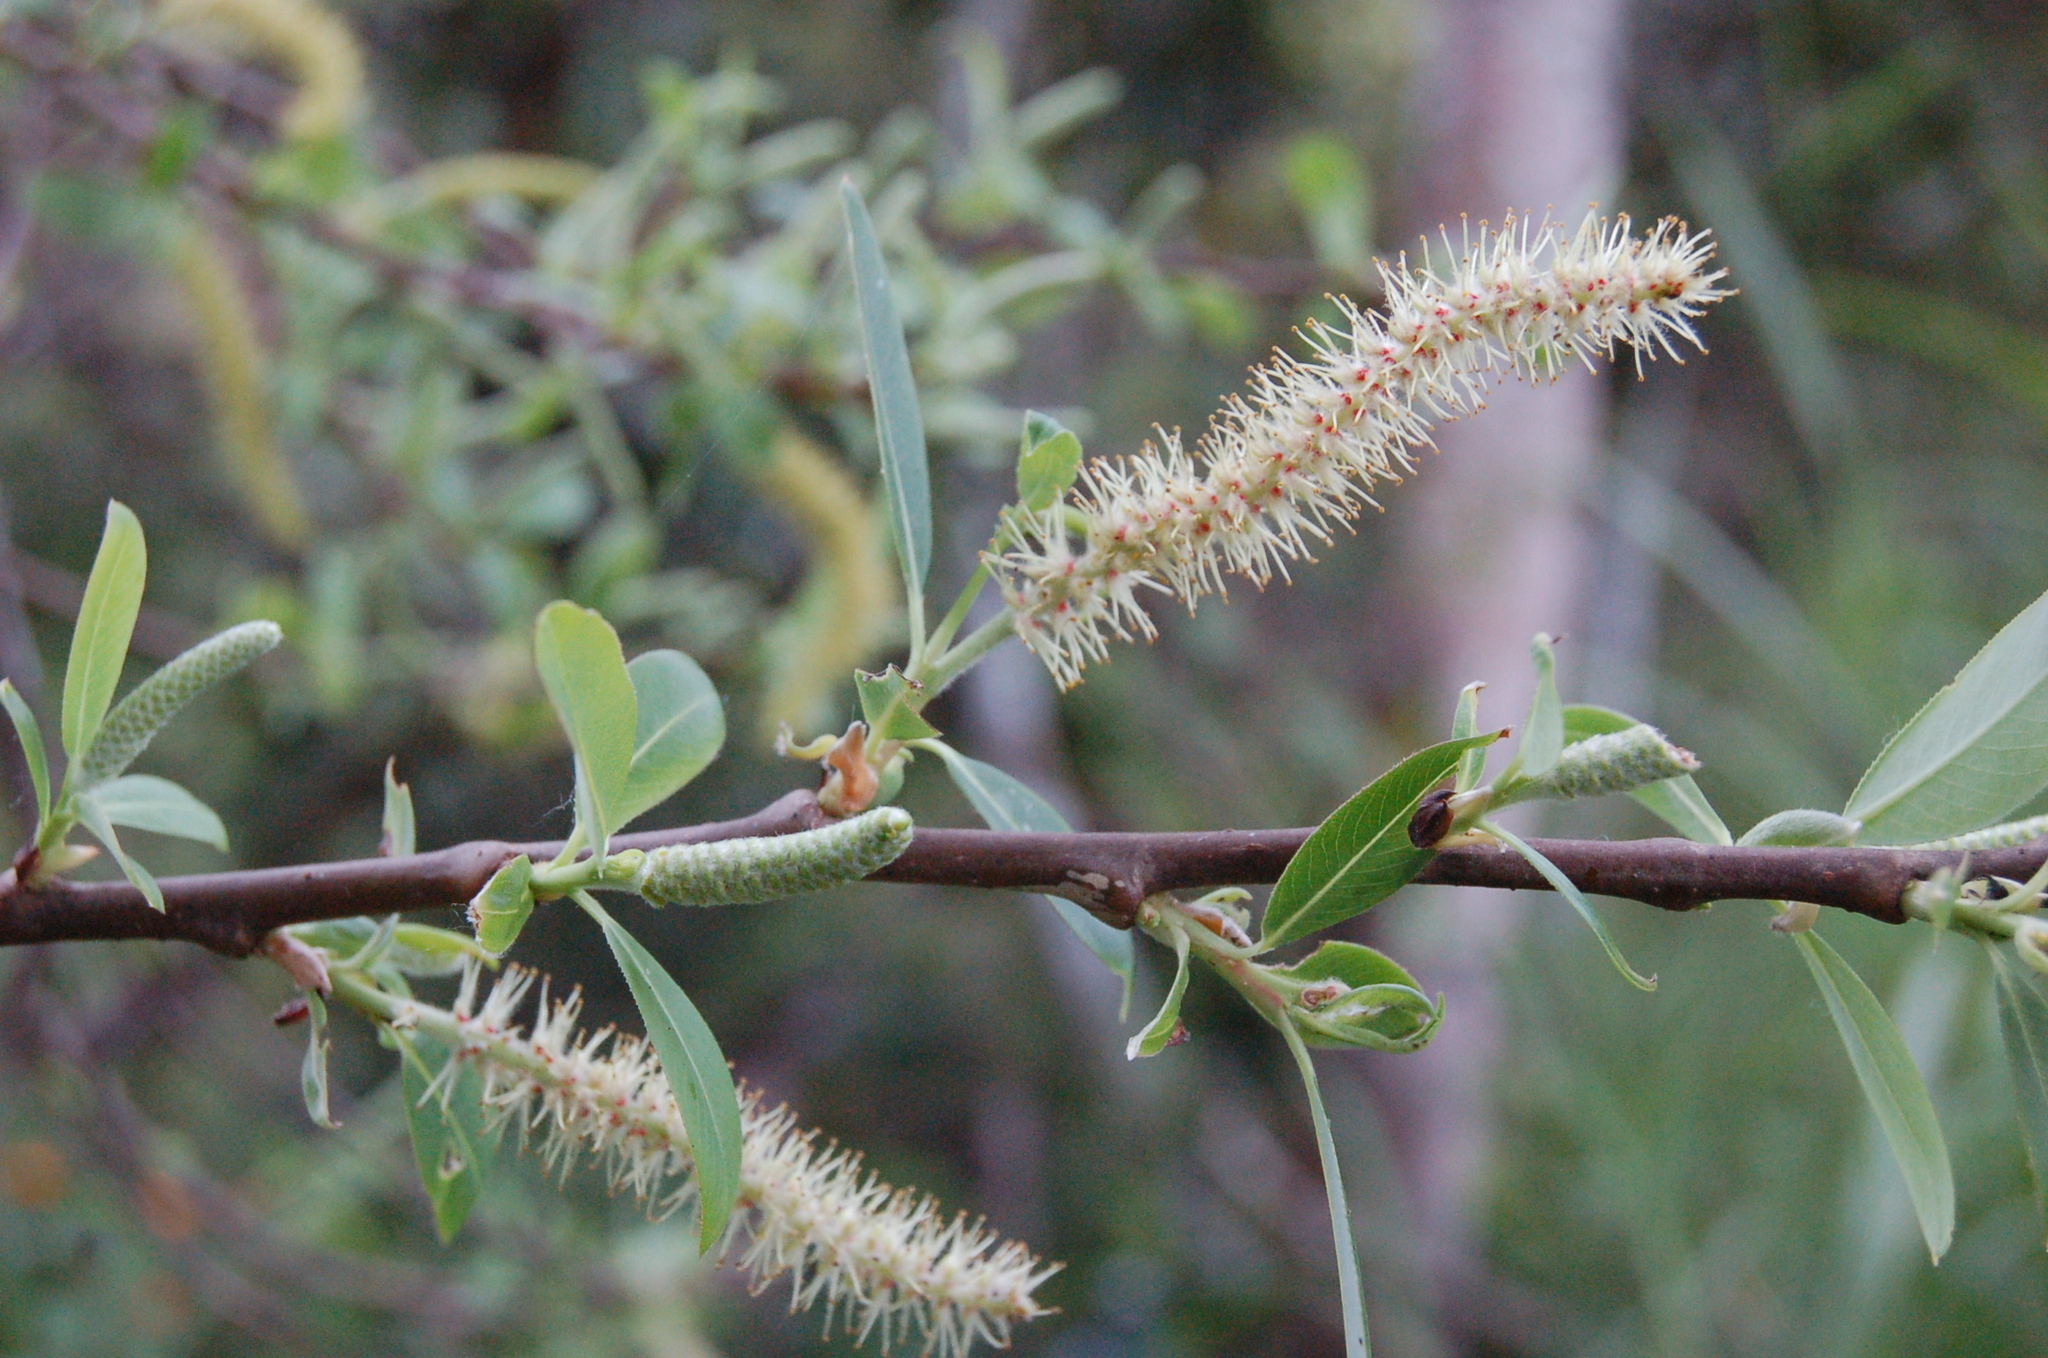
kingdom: Plantae
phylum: Tracheophyta
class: Magnoliopsida
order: Malpighiales
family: Salicaceae
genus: Salix
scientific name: Salix paradoxa
